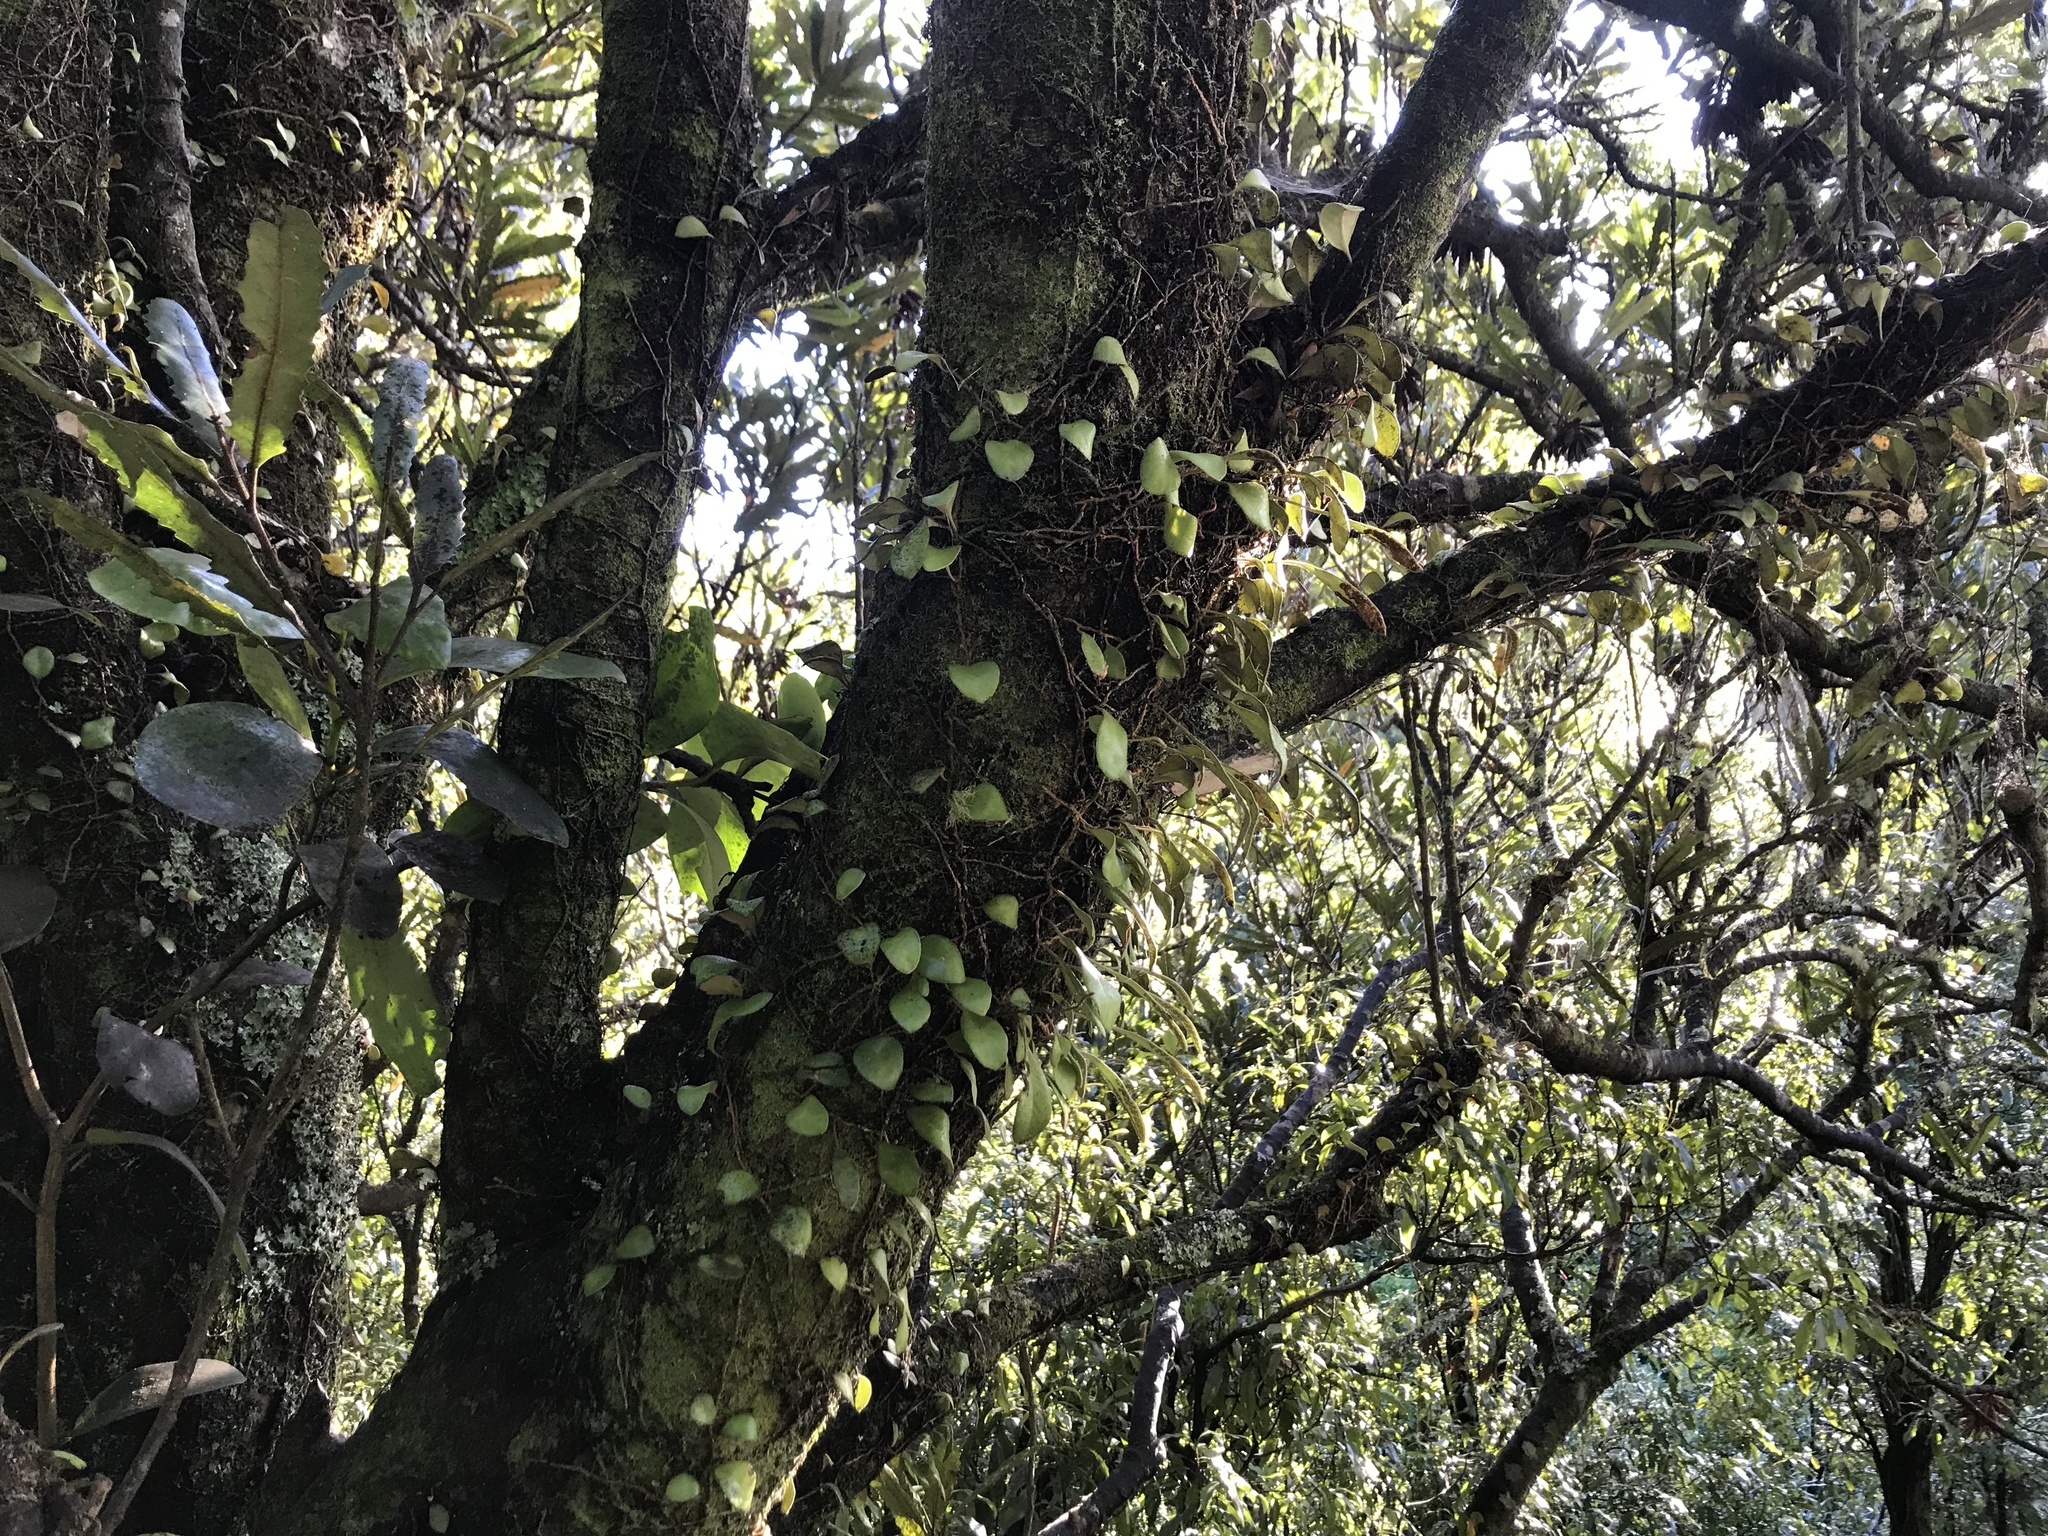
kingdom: Plantae
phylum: Tracheophyta
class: Polypodiopsida
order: Polypodiales
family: Polypodiaceae
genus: Pyrrosia
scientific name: Pyrrosia eleagnifolia
